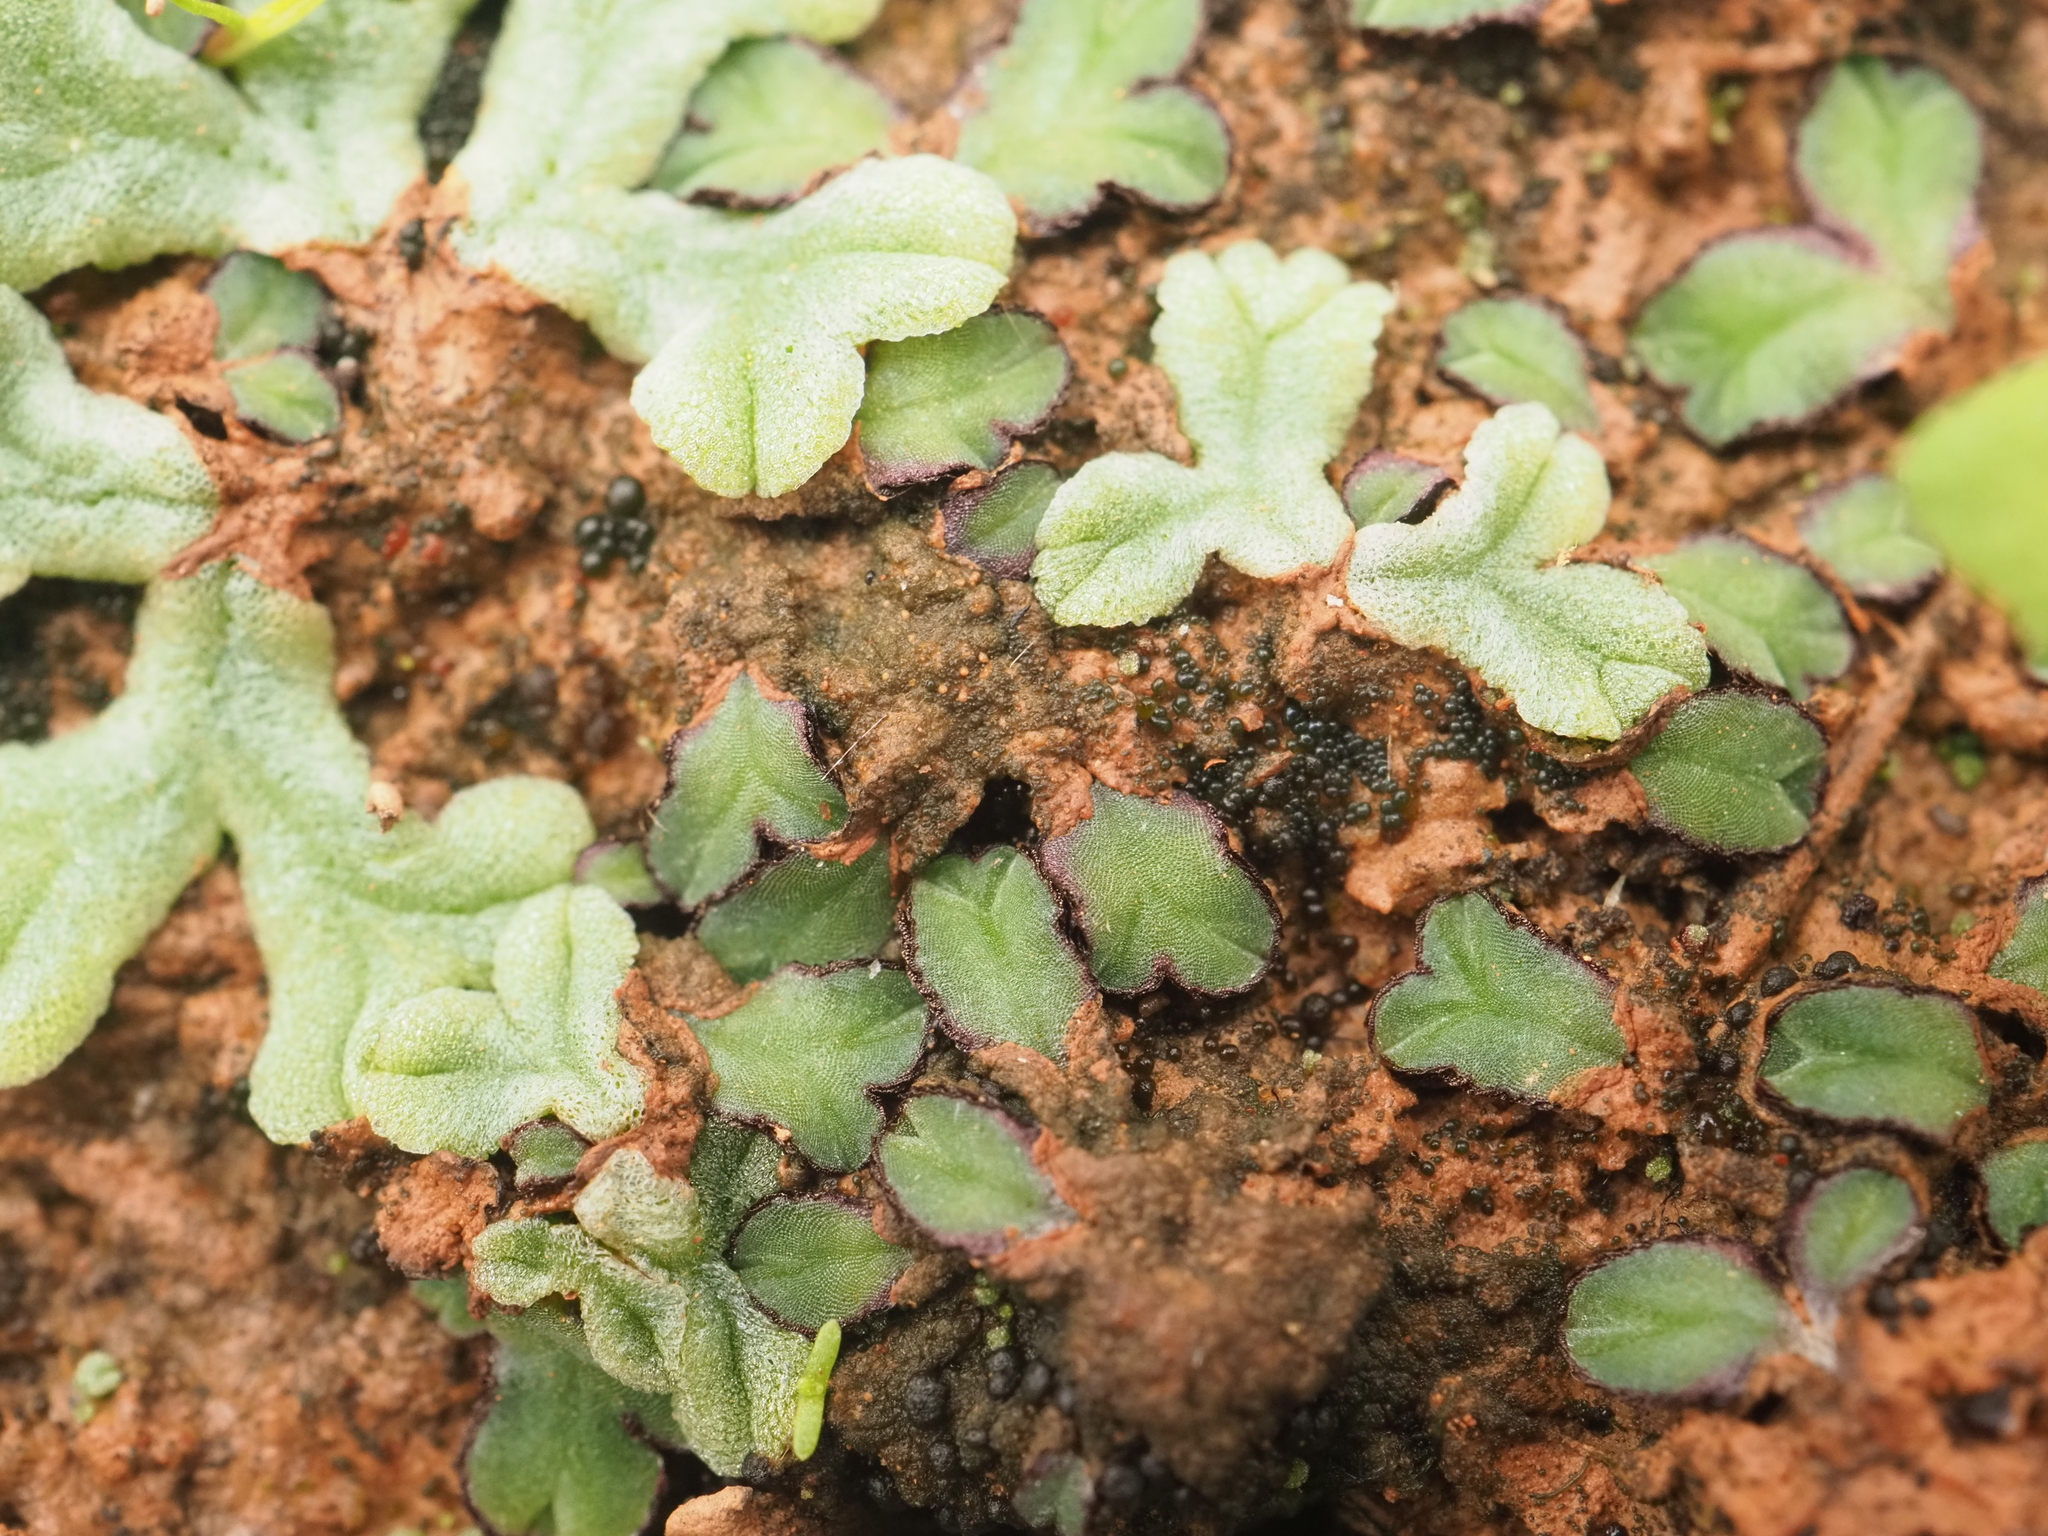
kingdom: Plantae
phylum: Marchantiophyta
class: Marchantiopsida
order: Marchantiales
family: Ricciaceae
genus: Riccia
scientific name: Riccia inflexa
